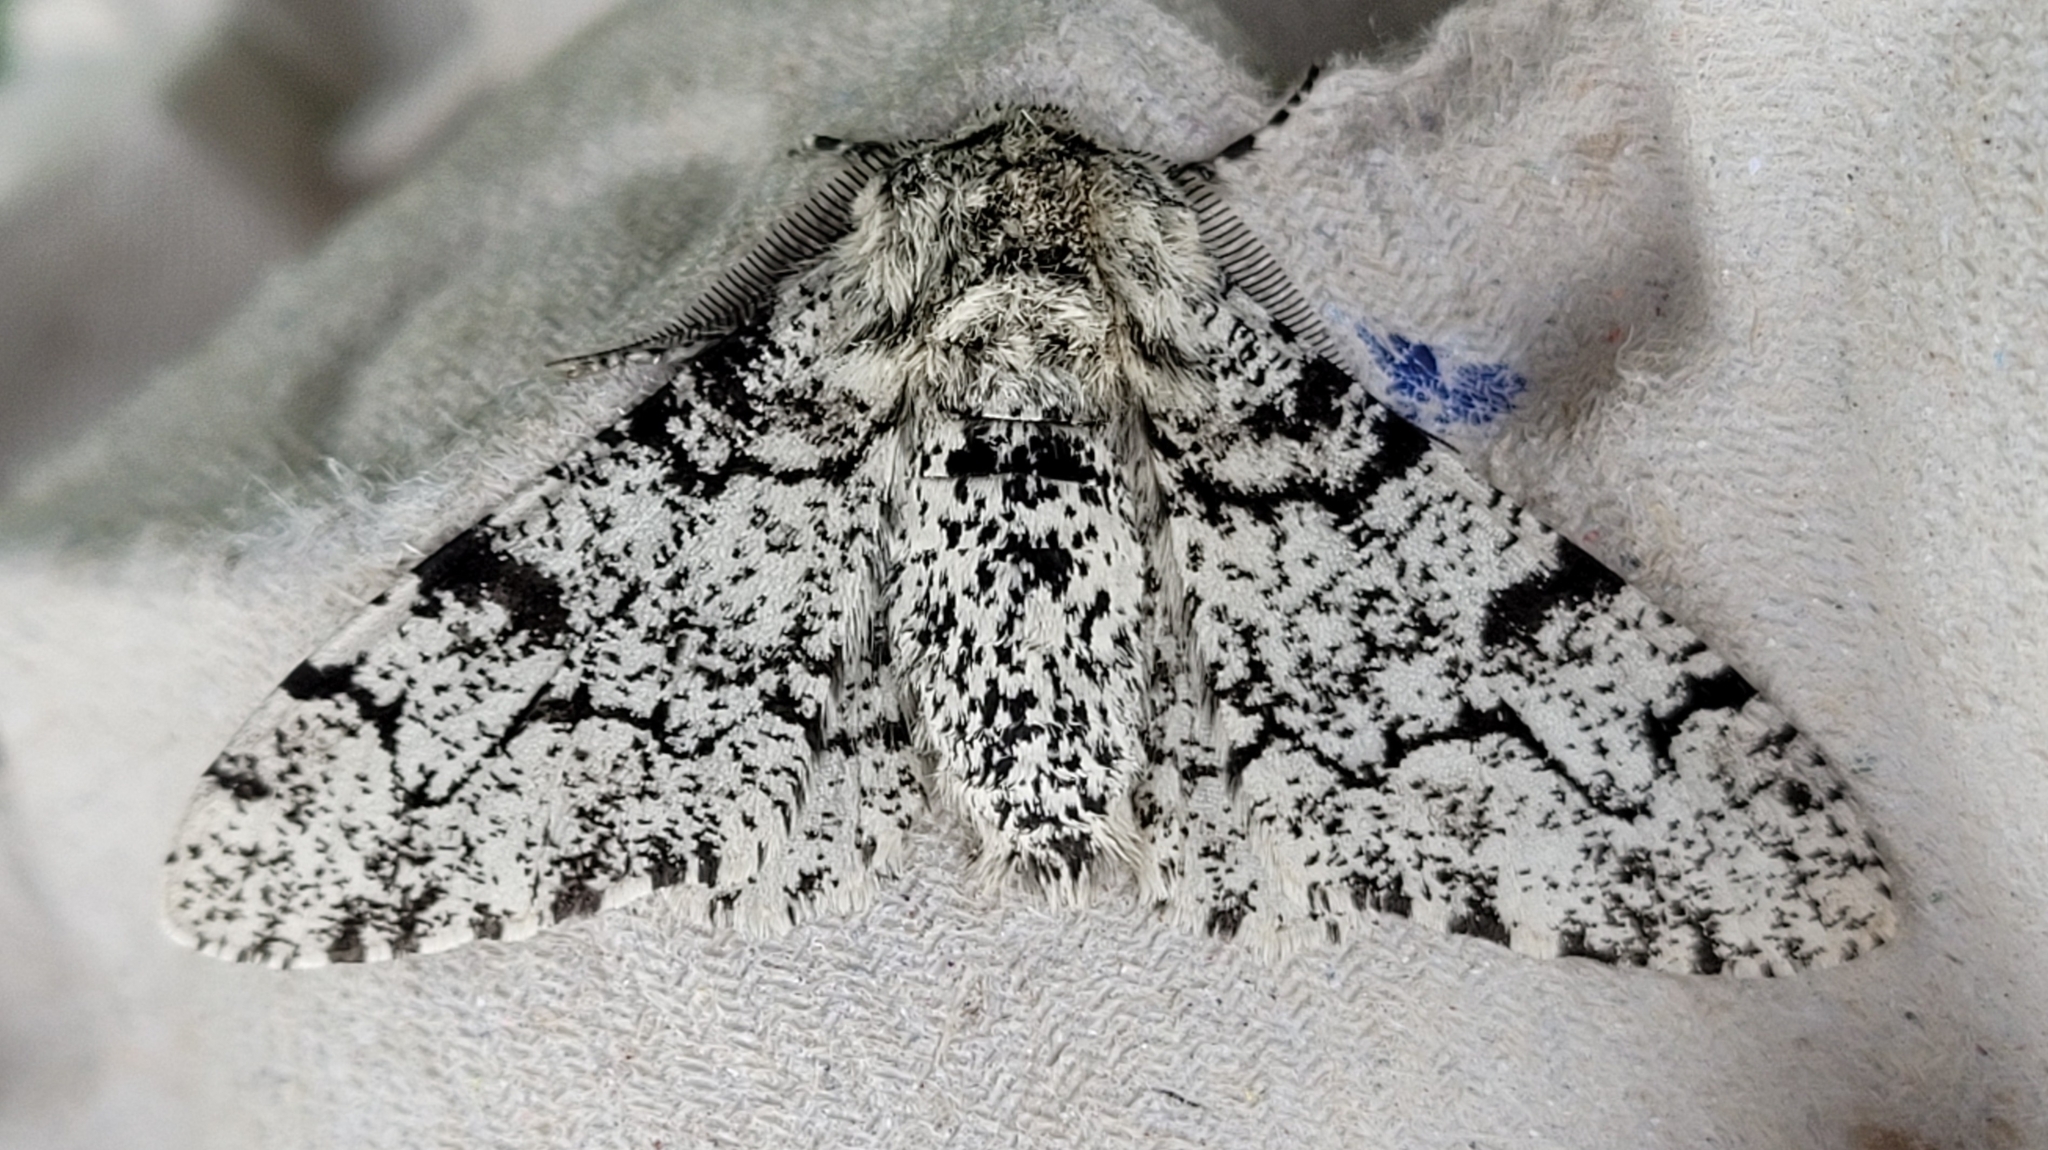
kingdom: Animalia
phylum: Arthropoda
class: Insecta
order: Lepidoptera
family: Geometridae
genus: Biston
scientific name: Biston betularia
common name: Peppered moth
